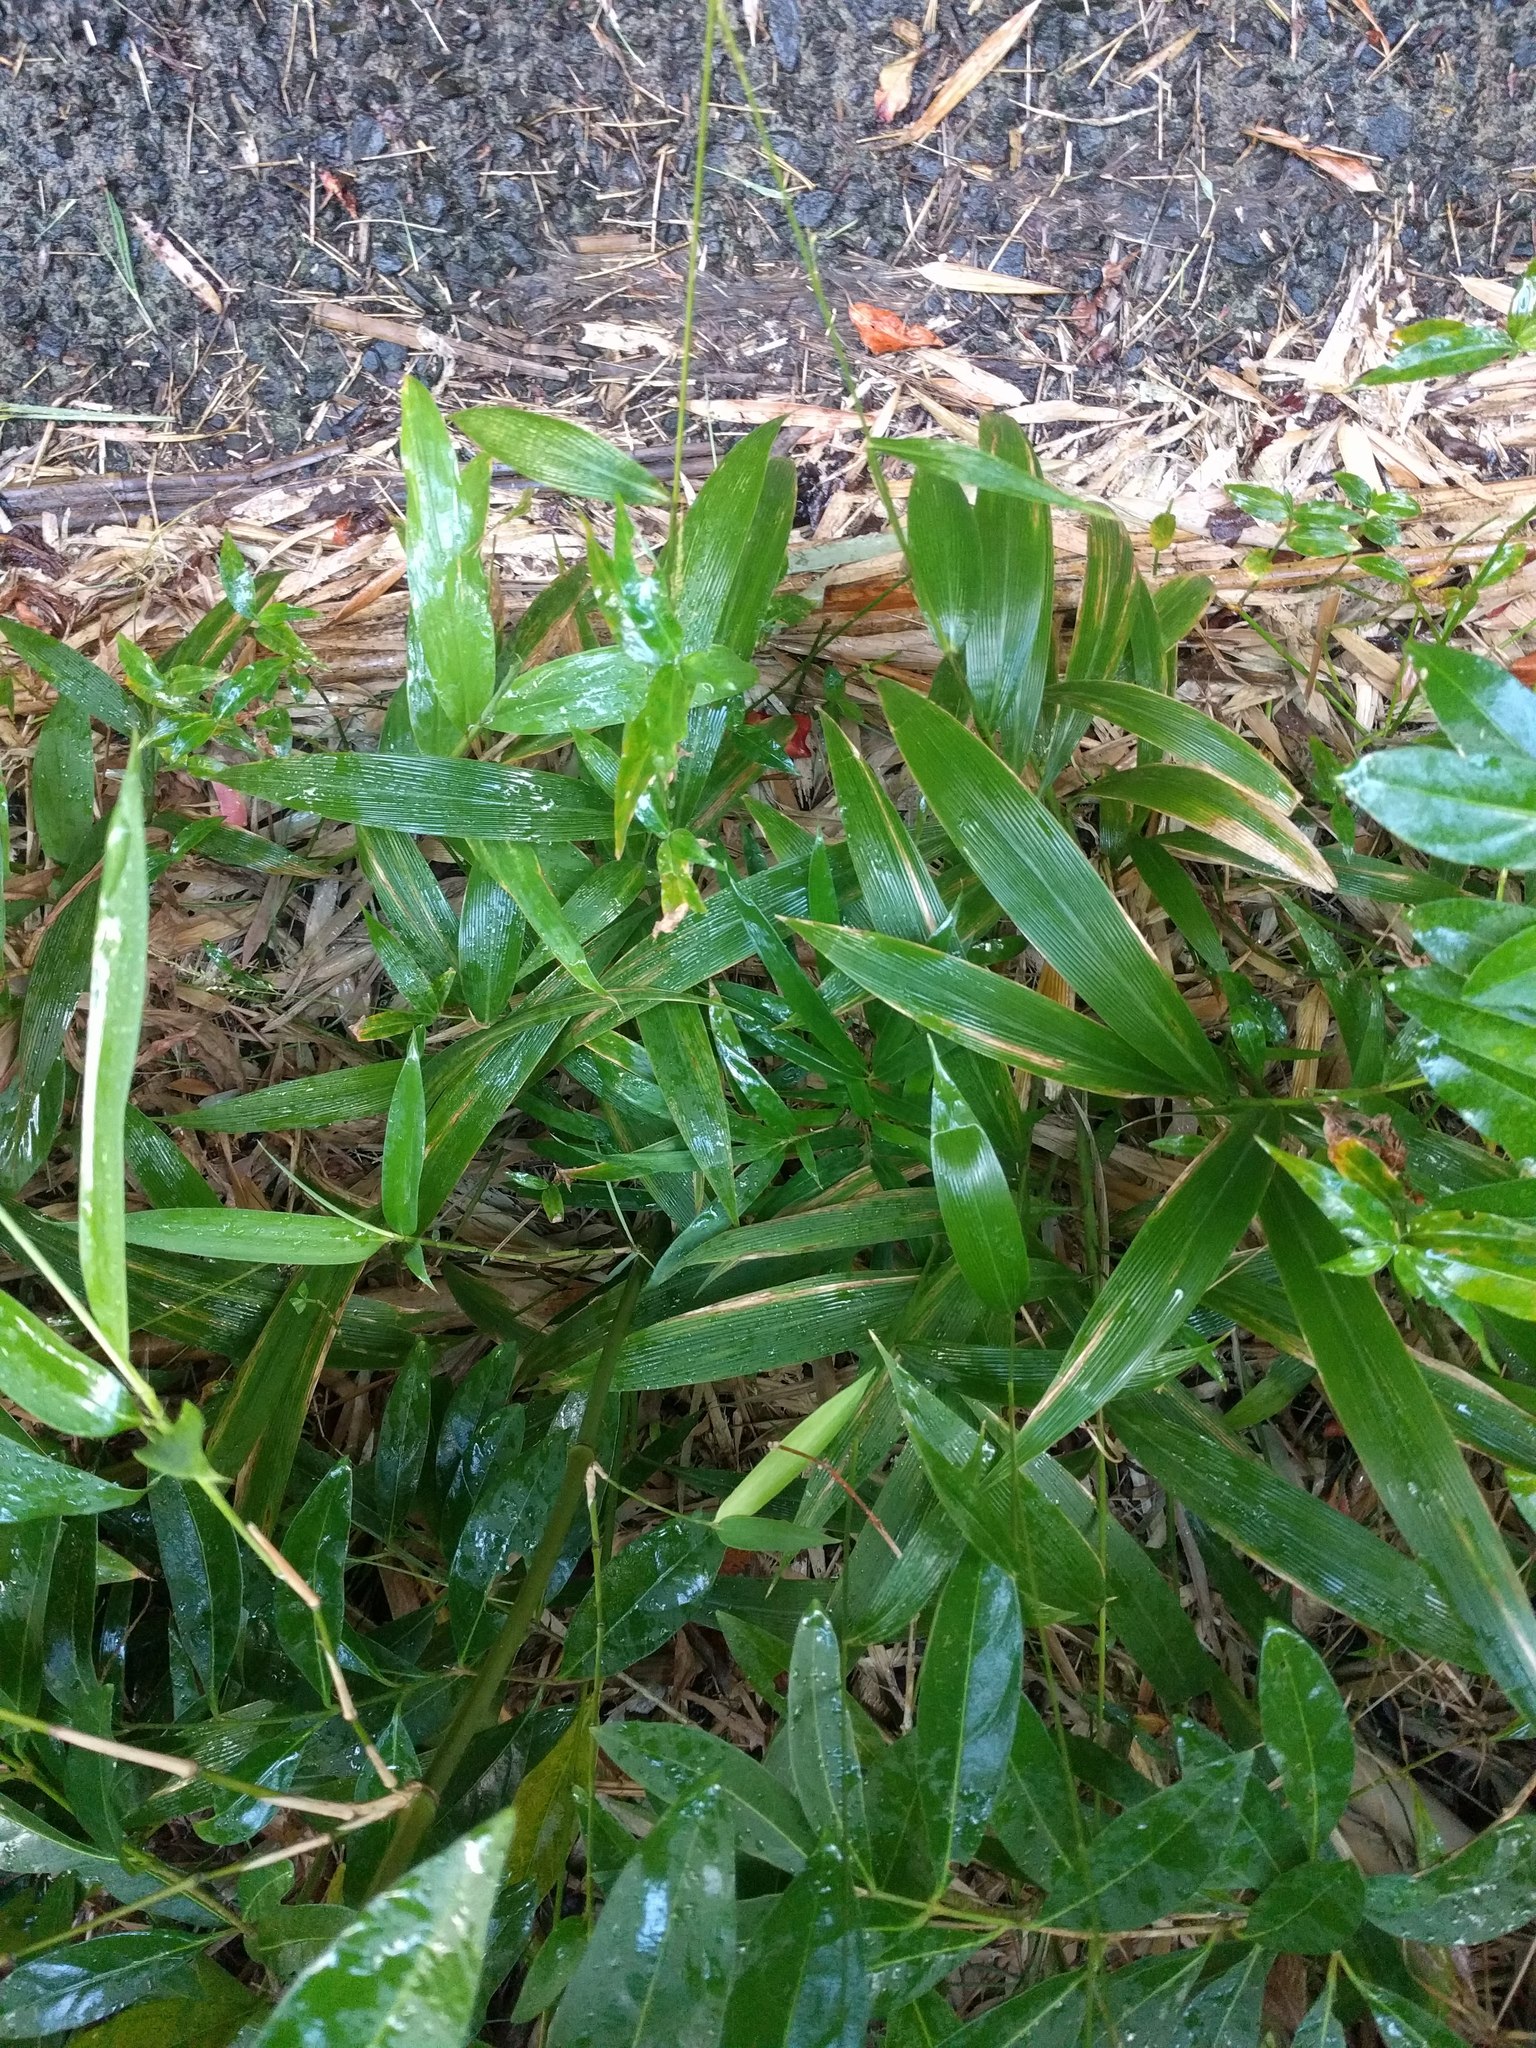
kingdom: Plantae
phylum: Tracheophyta
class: Liliopsida
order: Poales
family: Poaceae
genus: Setaria
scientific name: Setaria palmifolia
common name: Broadleaved bristlegrass
